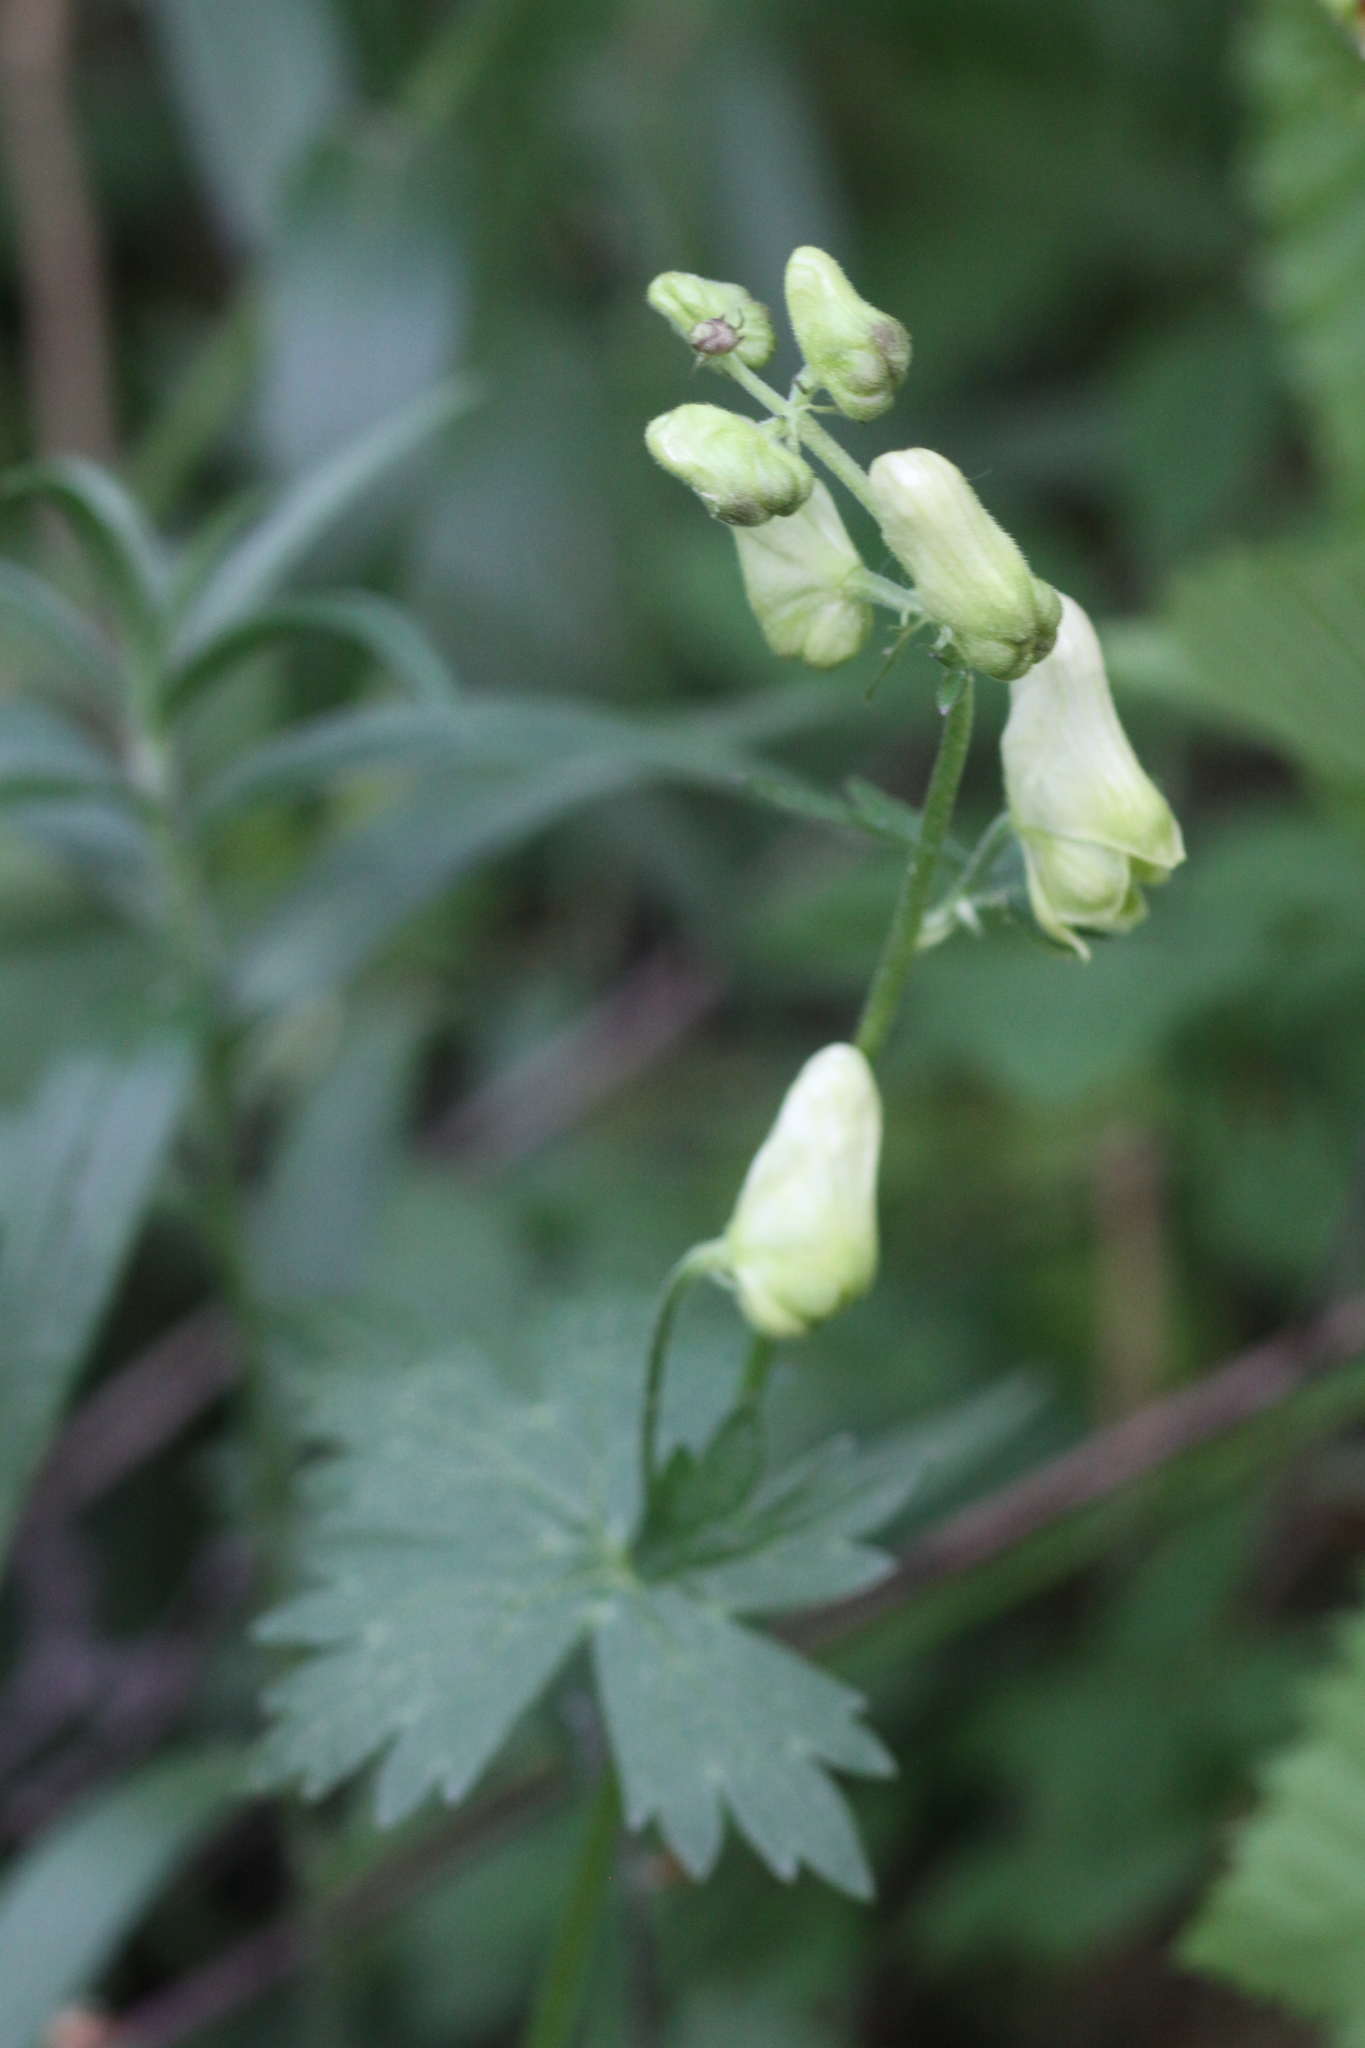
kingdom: Plantae
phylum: Tracheophyta
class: Magnoliopsida
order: Ranunculales
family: Ranunculaceae
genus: Aconitum
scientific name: Aconitum lycoctonum
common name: Wolf's-bane
